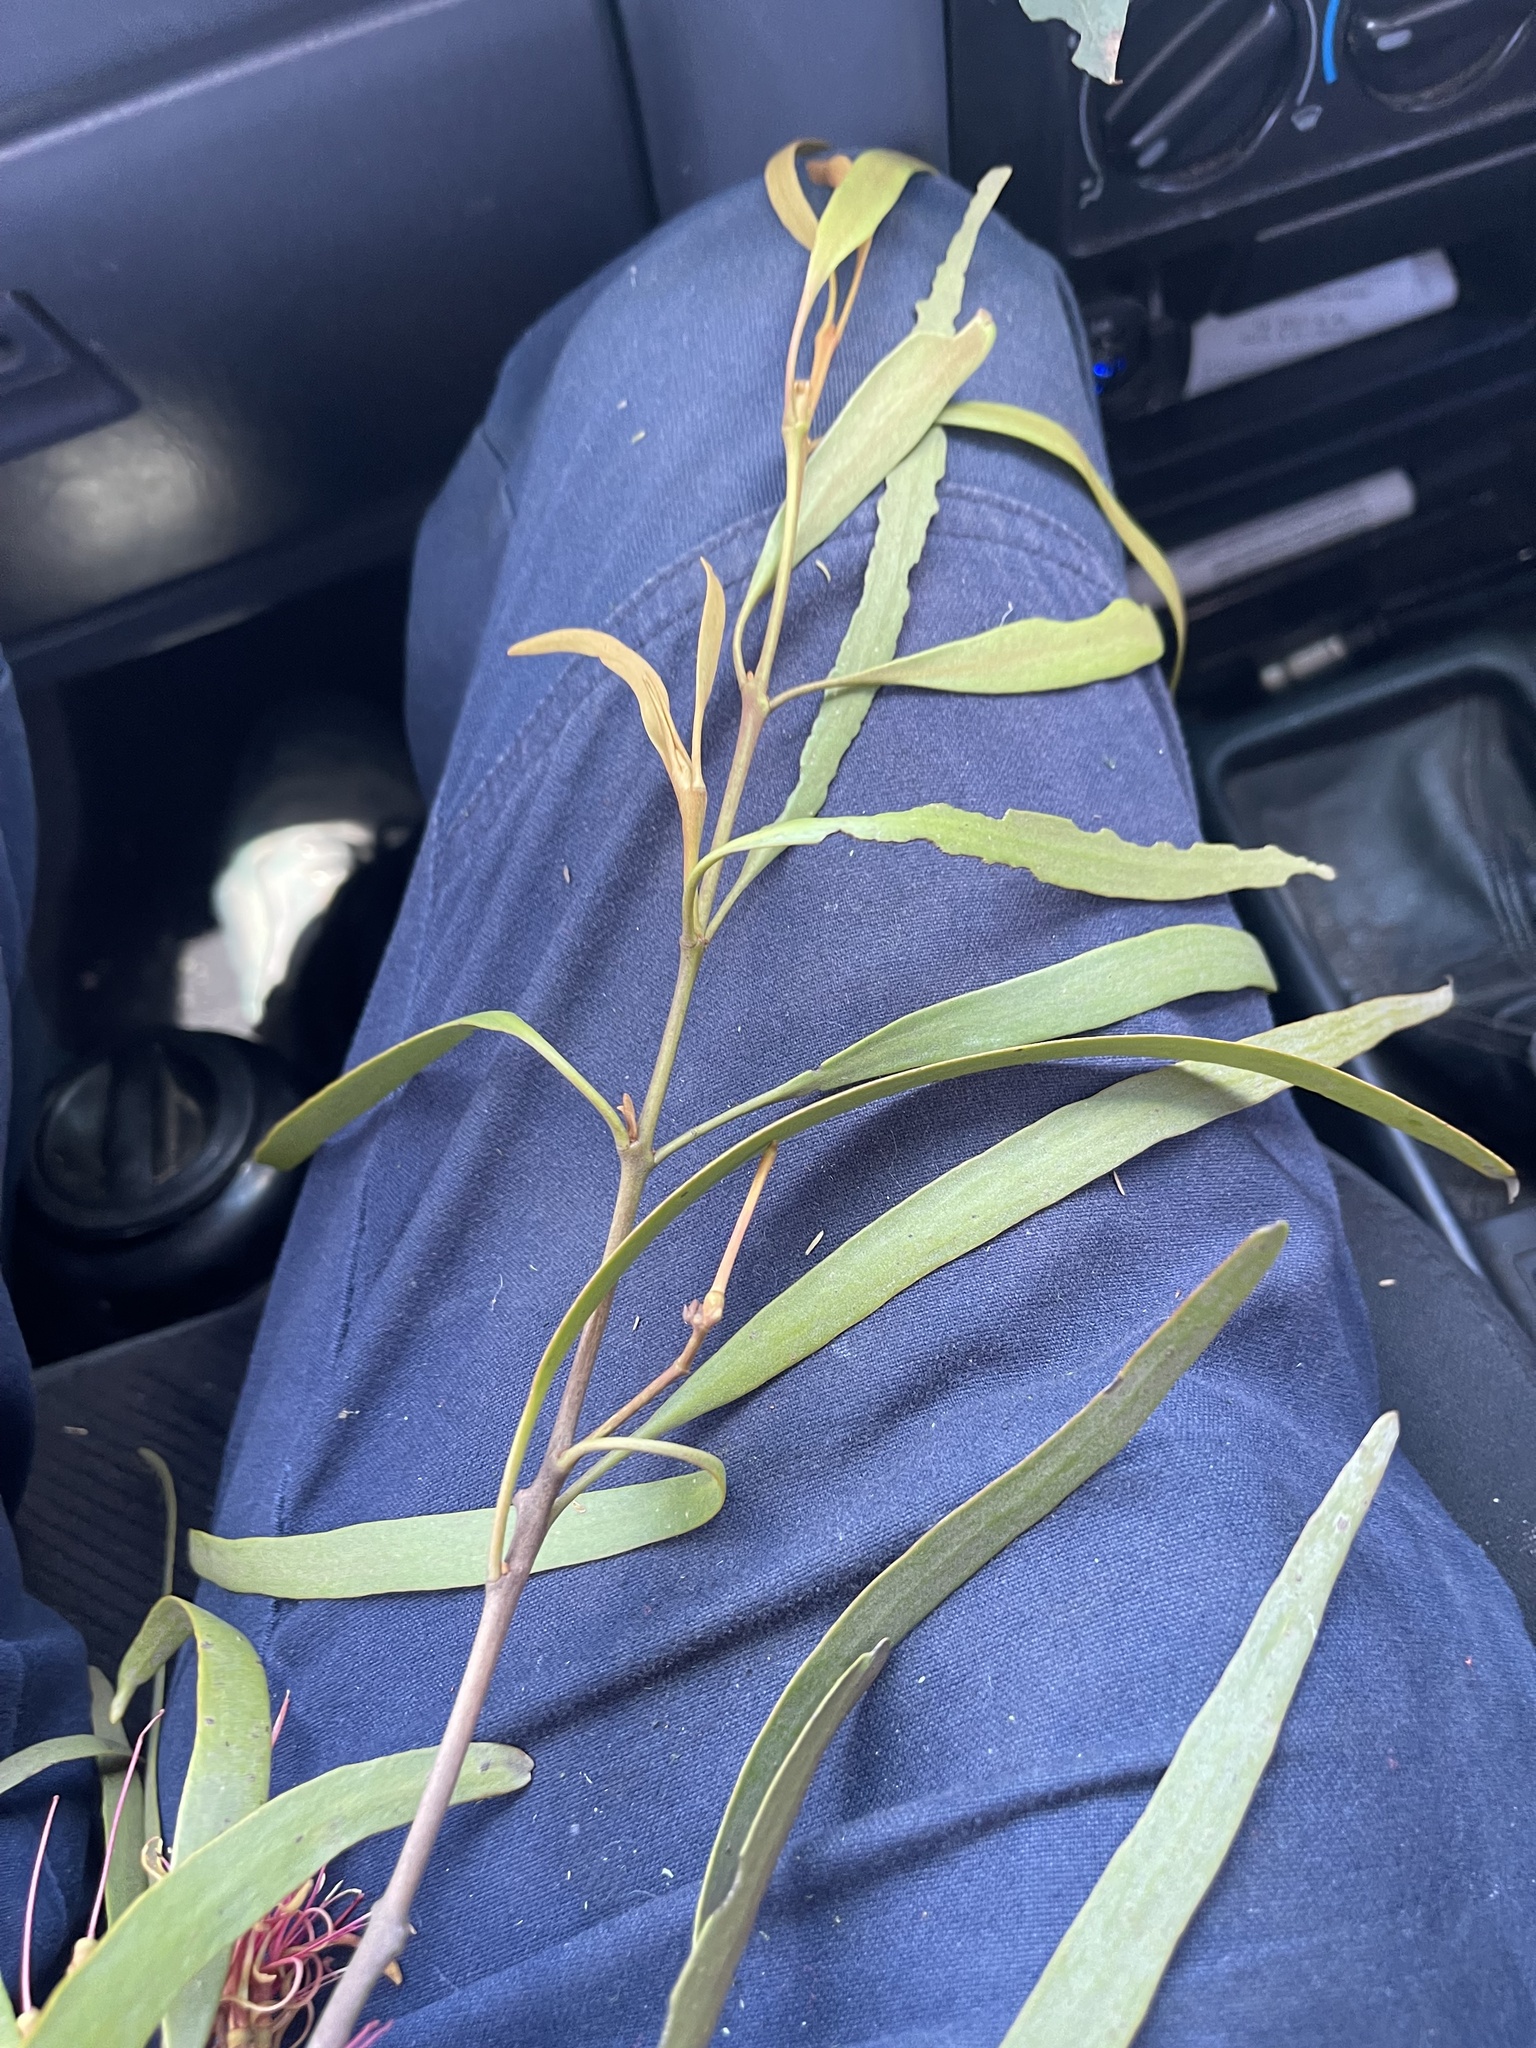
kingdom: Plantae
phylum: Tracheophyta
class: Magnoliopsida
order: Santalales
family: Loranthaceae
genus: Amyema
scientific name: Amyema pendula
